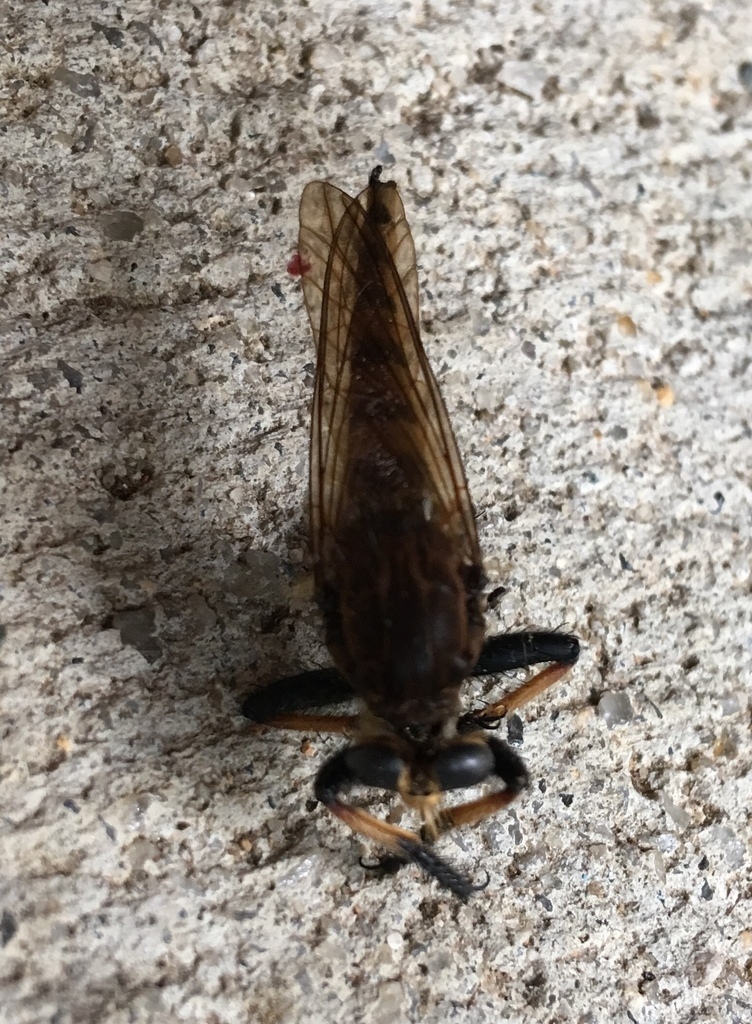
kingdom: Animalia
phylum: Arthropoda
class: Insecta
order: Diptera
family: Asilidae
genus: Promachus
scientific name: Promachus rufipes
